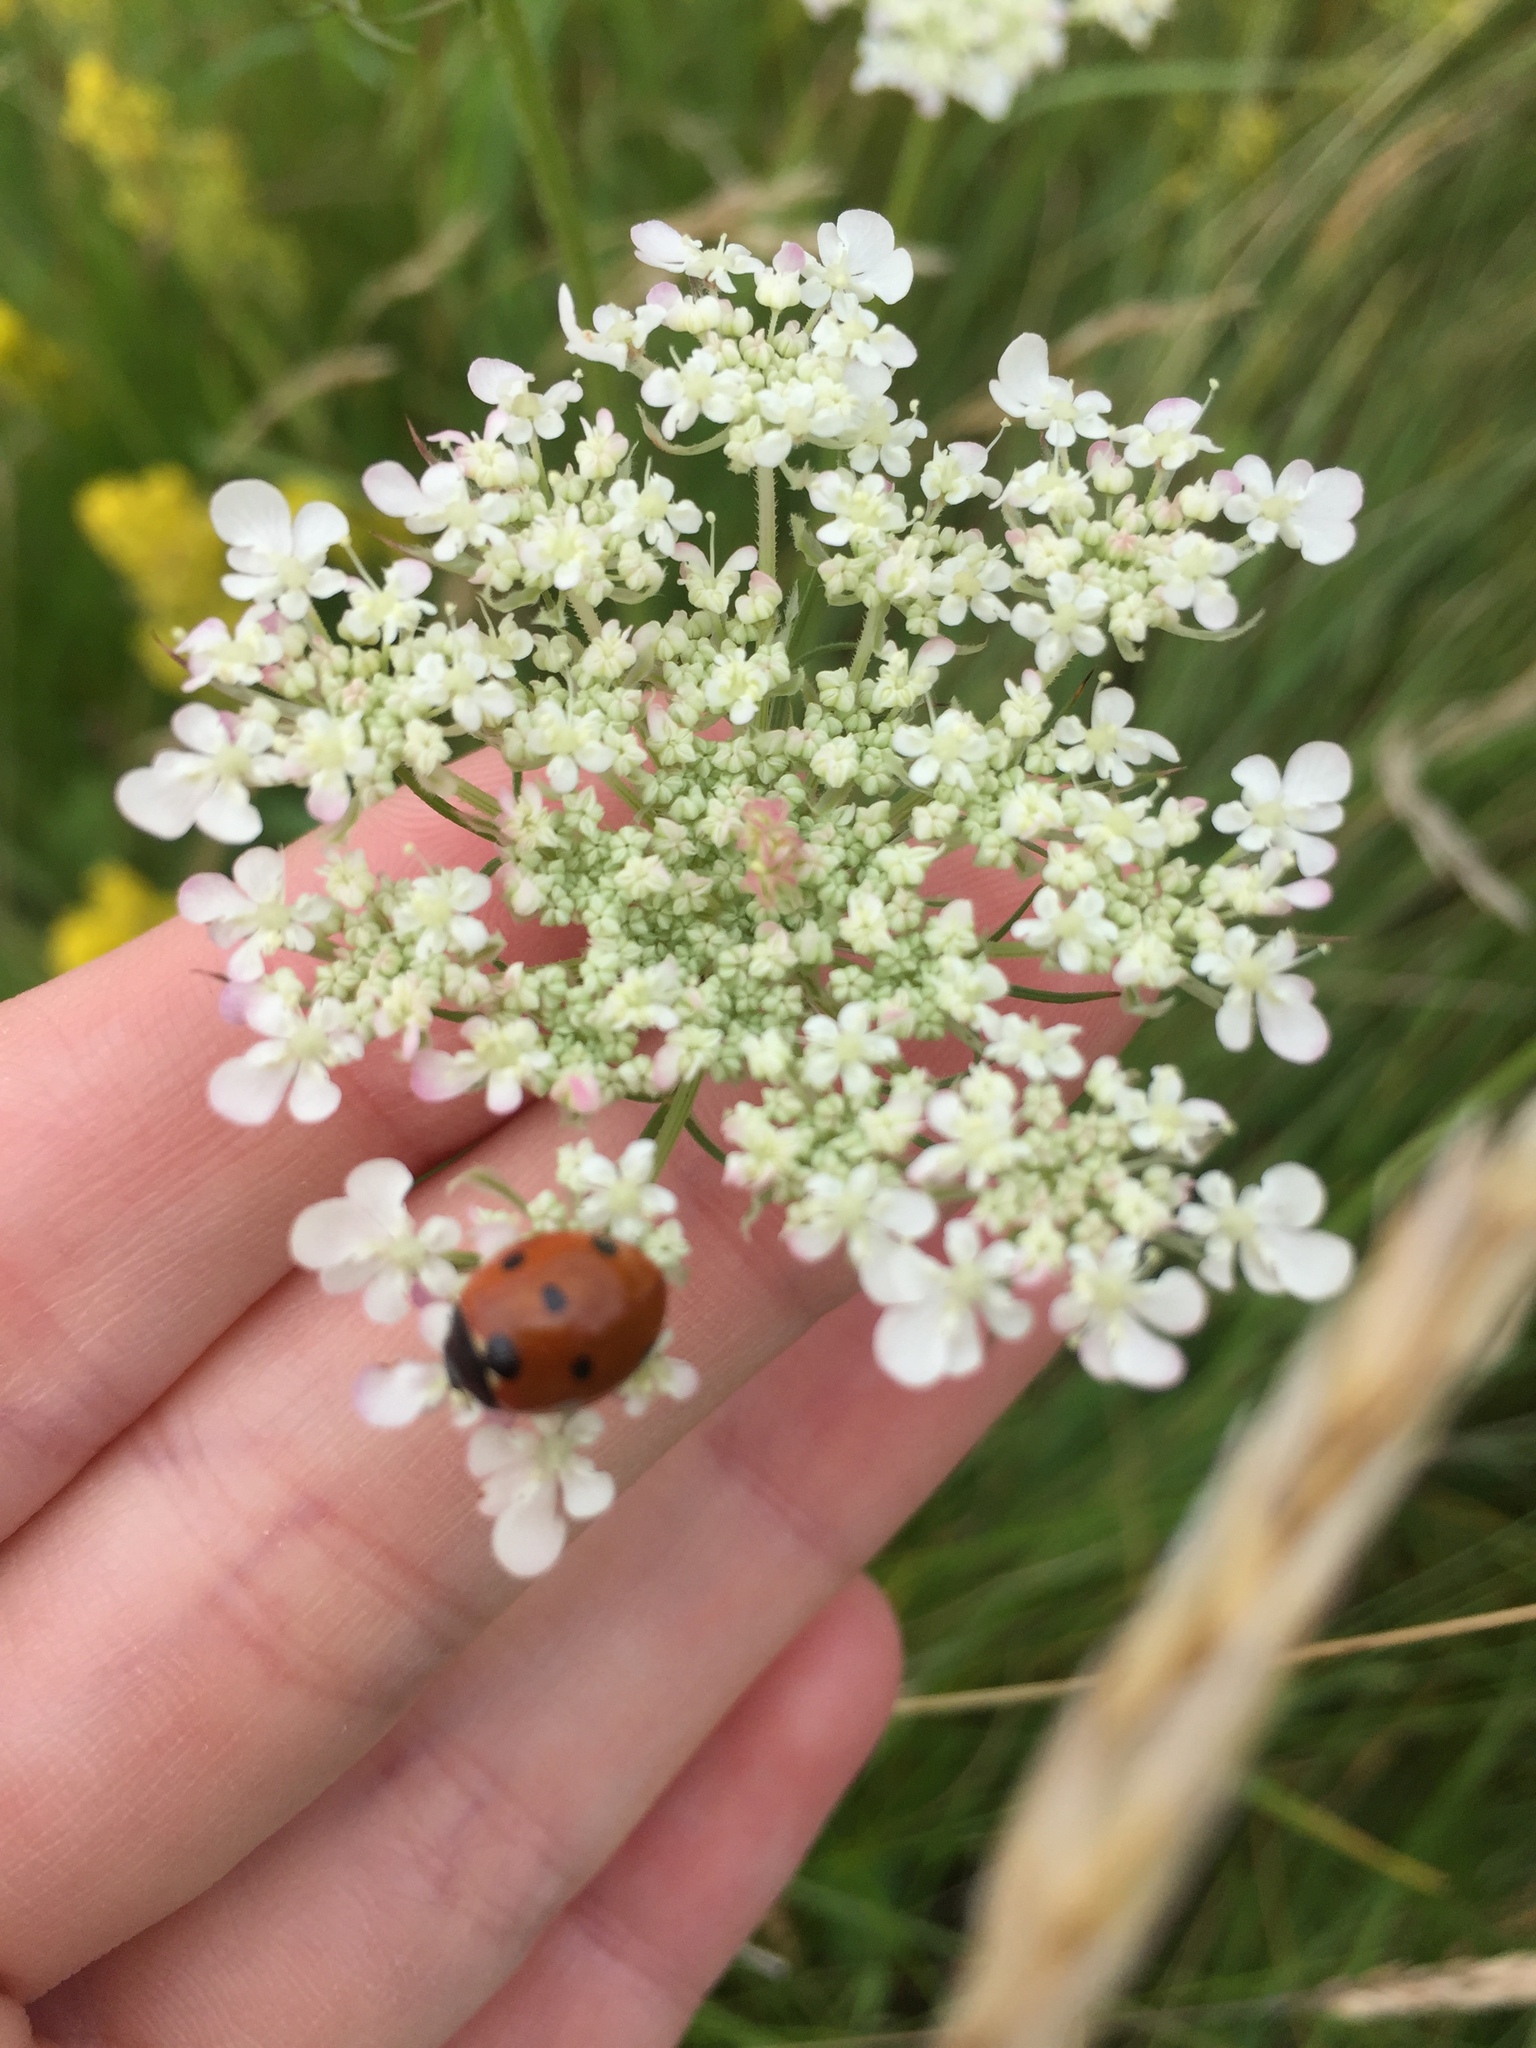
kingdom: Animalia
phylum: Arthropoda
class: Insecta
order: Coleoptera
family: Coccinellidae
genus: Coccinella
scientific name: Coccinella septempunctata
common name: Sevenspotted lady beetle
